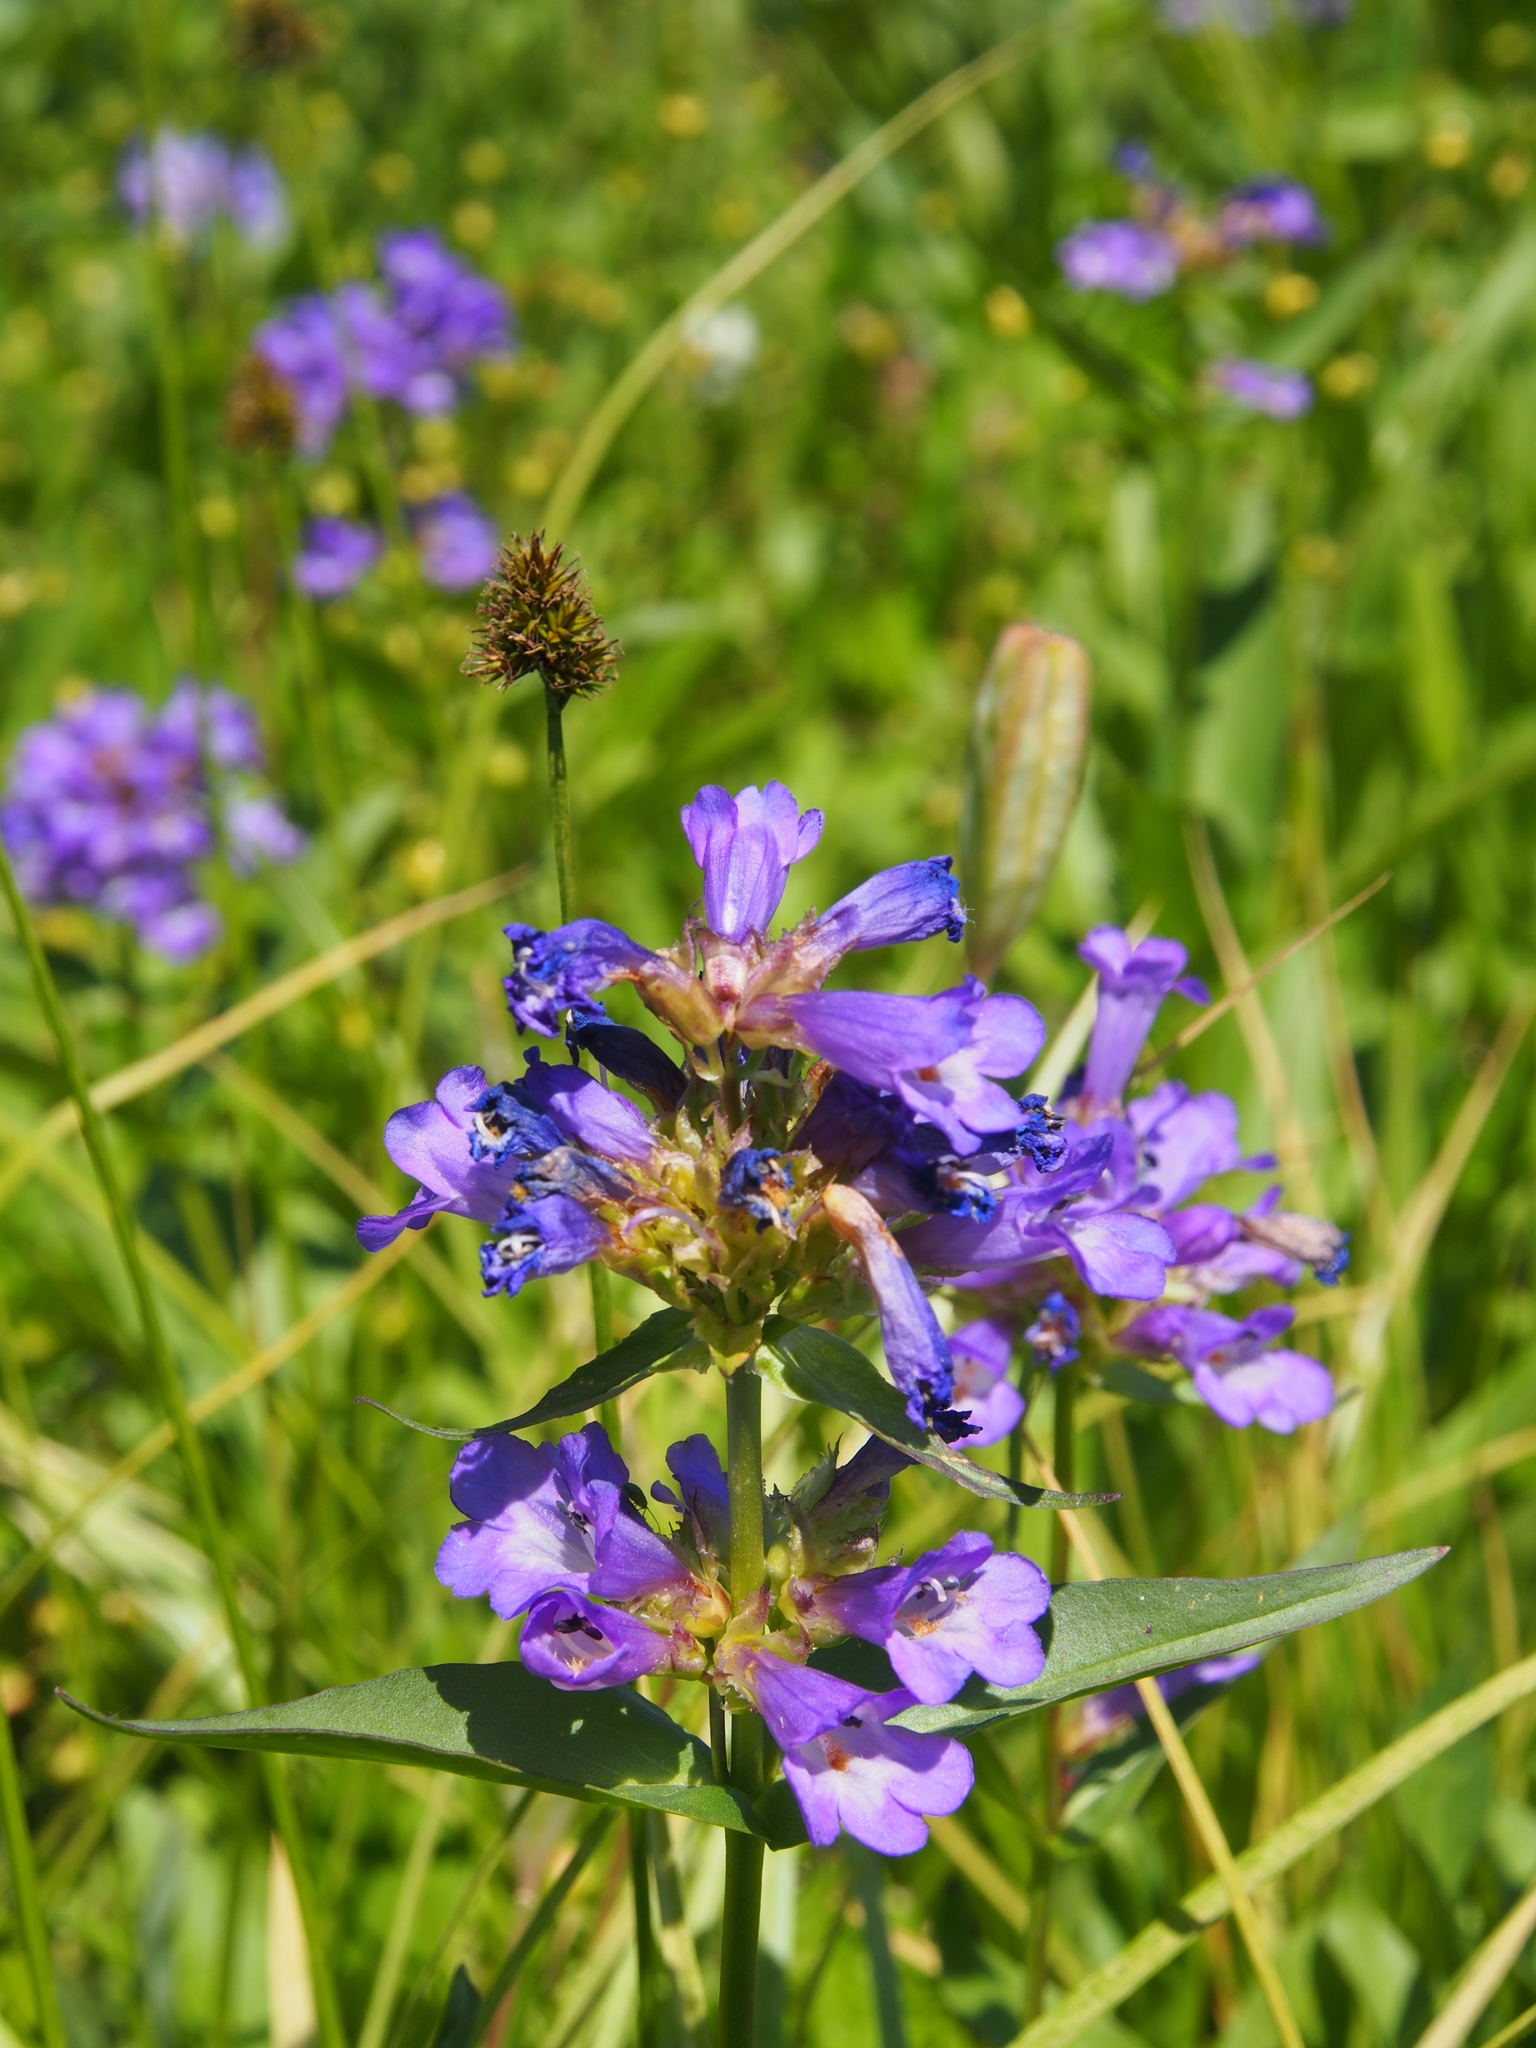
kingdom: Plantae
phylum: Tracheophyta
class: Magnoliopsida
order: Lamiales
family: Plantaginaceae
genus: Penstemon
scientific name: Penstemon globosus
